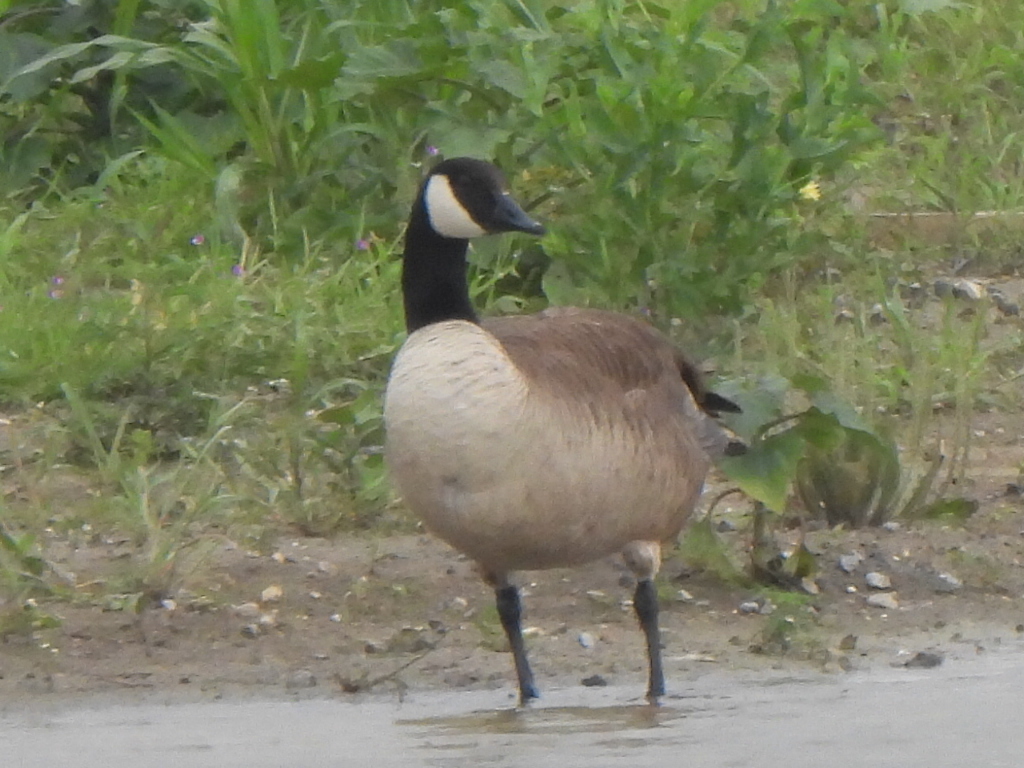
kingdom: Animalia
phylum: Chordata
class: Aves
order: Anseriformes
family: Anatidae
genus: Branta
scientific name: Branta canadensis
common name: Canada goose
